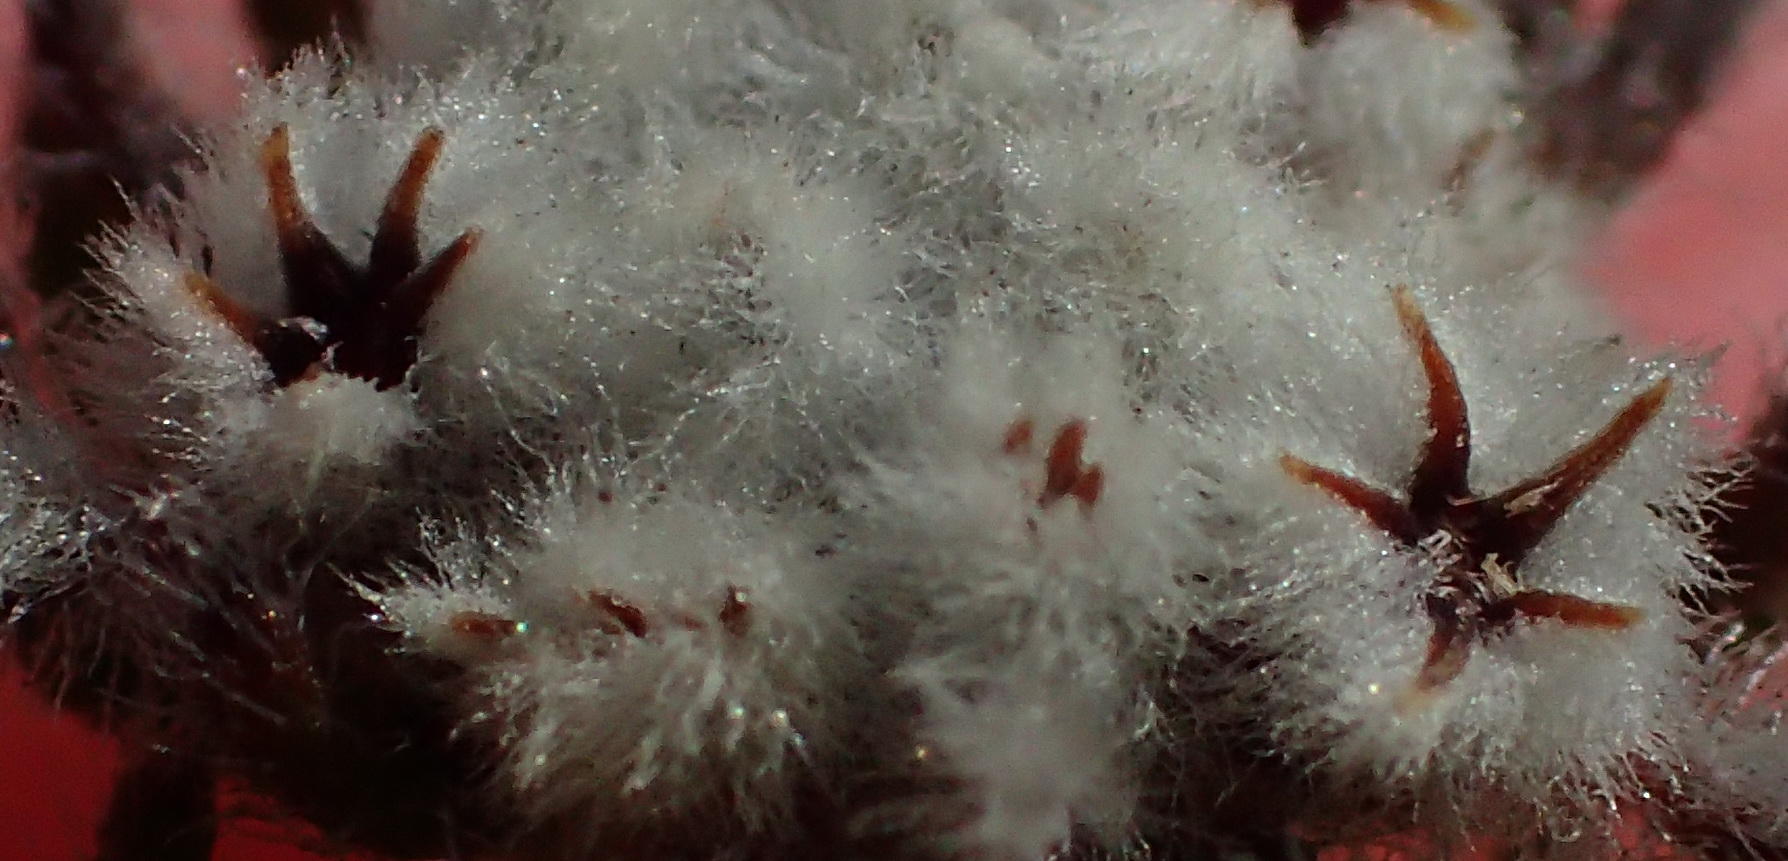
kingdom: Plantae
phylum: Tracheophyta
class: Magnoliopsida
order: Rosales
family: Rhamnaceae
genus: Phylica
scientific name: Phylica keetii
